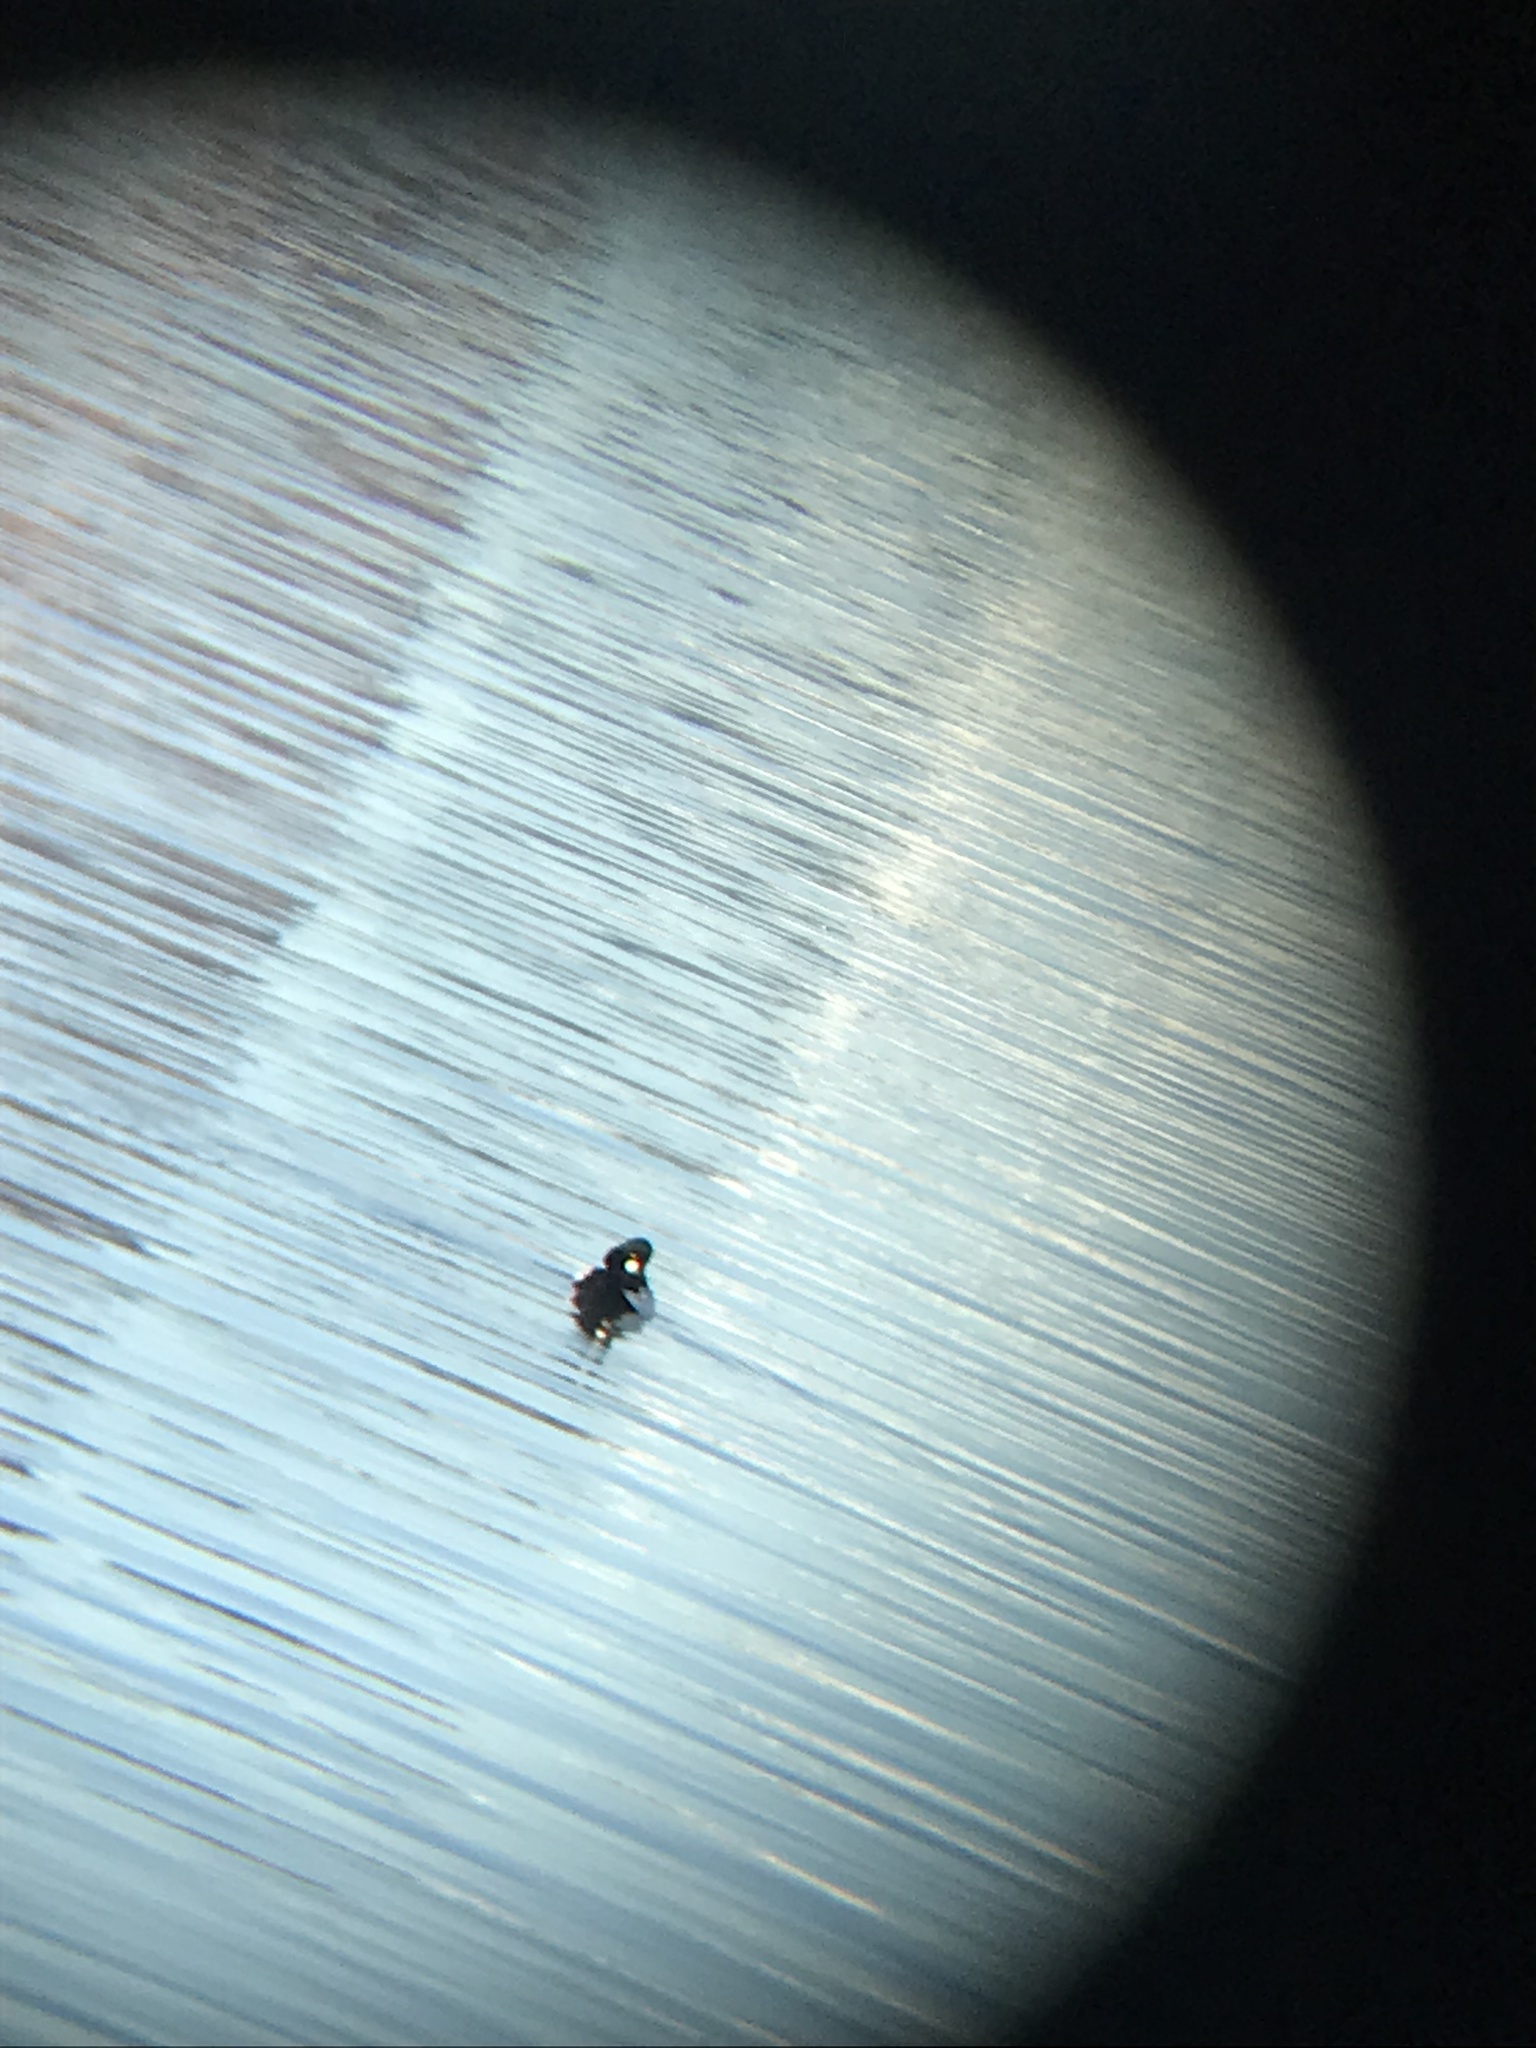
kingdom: Animalia
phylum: Chordata
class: Aves
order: Anseriformes
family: Anatidae
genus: Bucephala
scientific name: Bucephala clangula
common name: Common goldeneye
